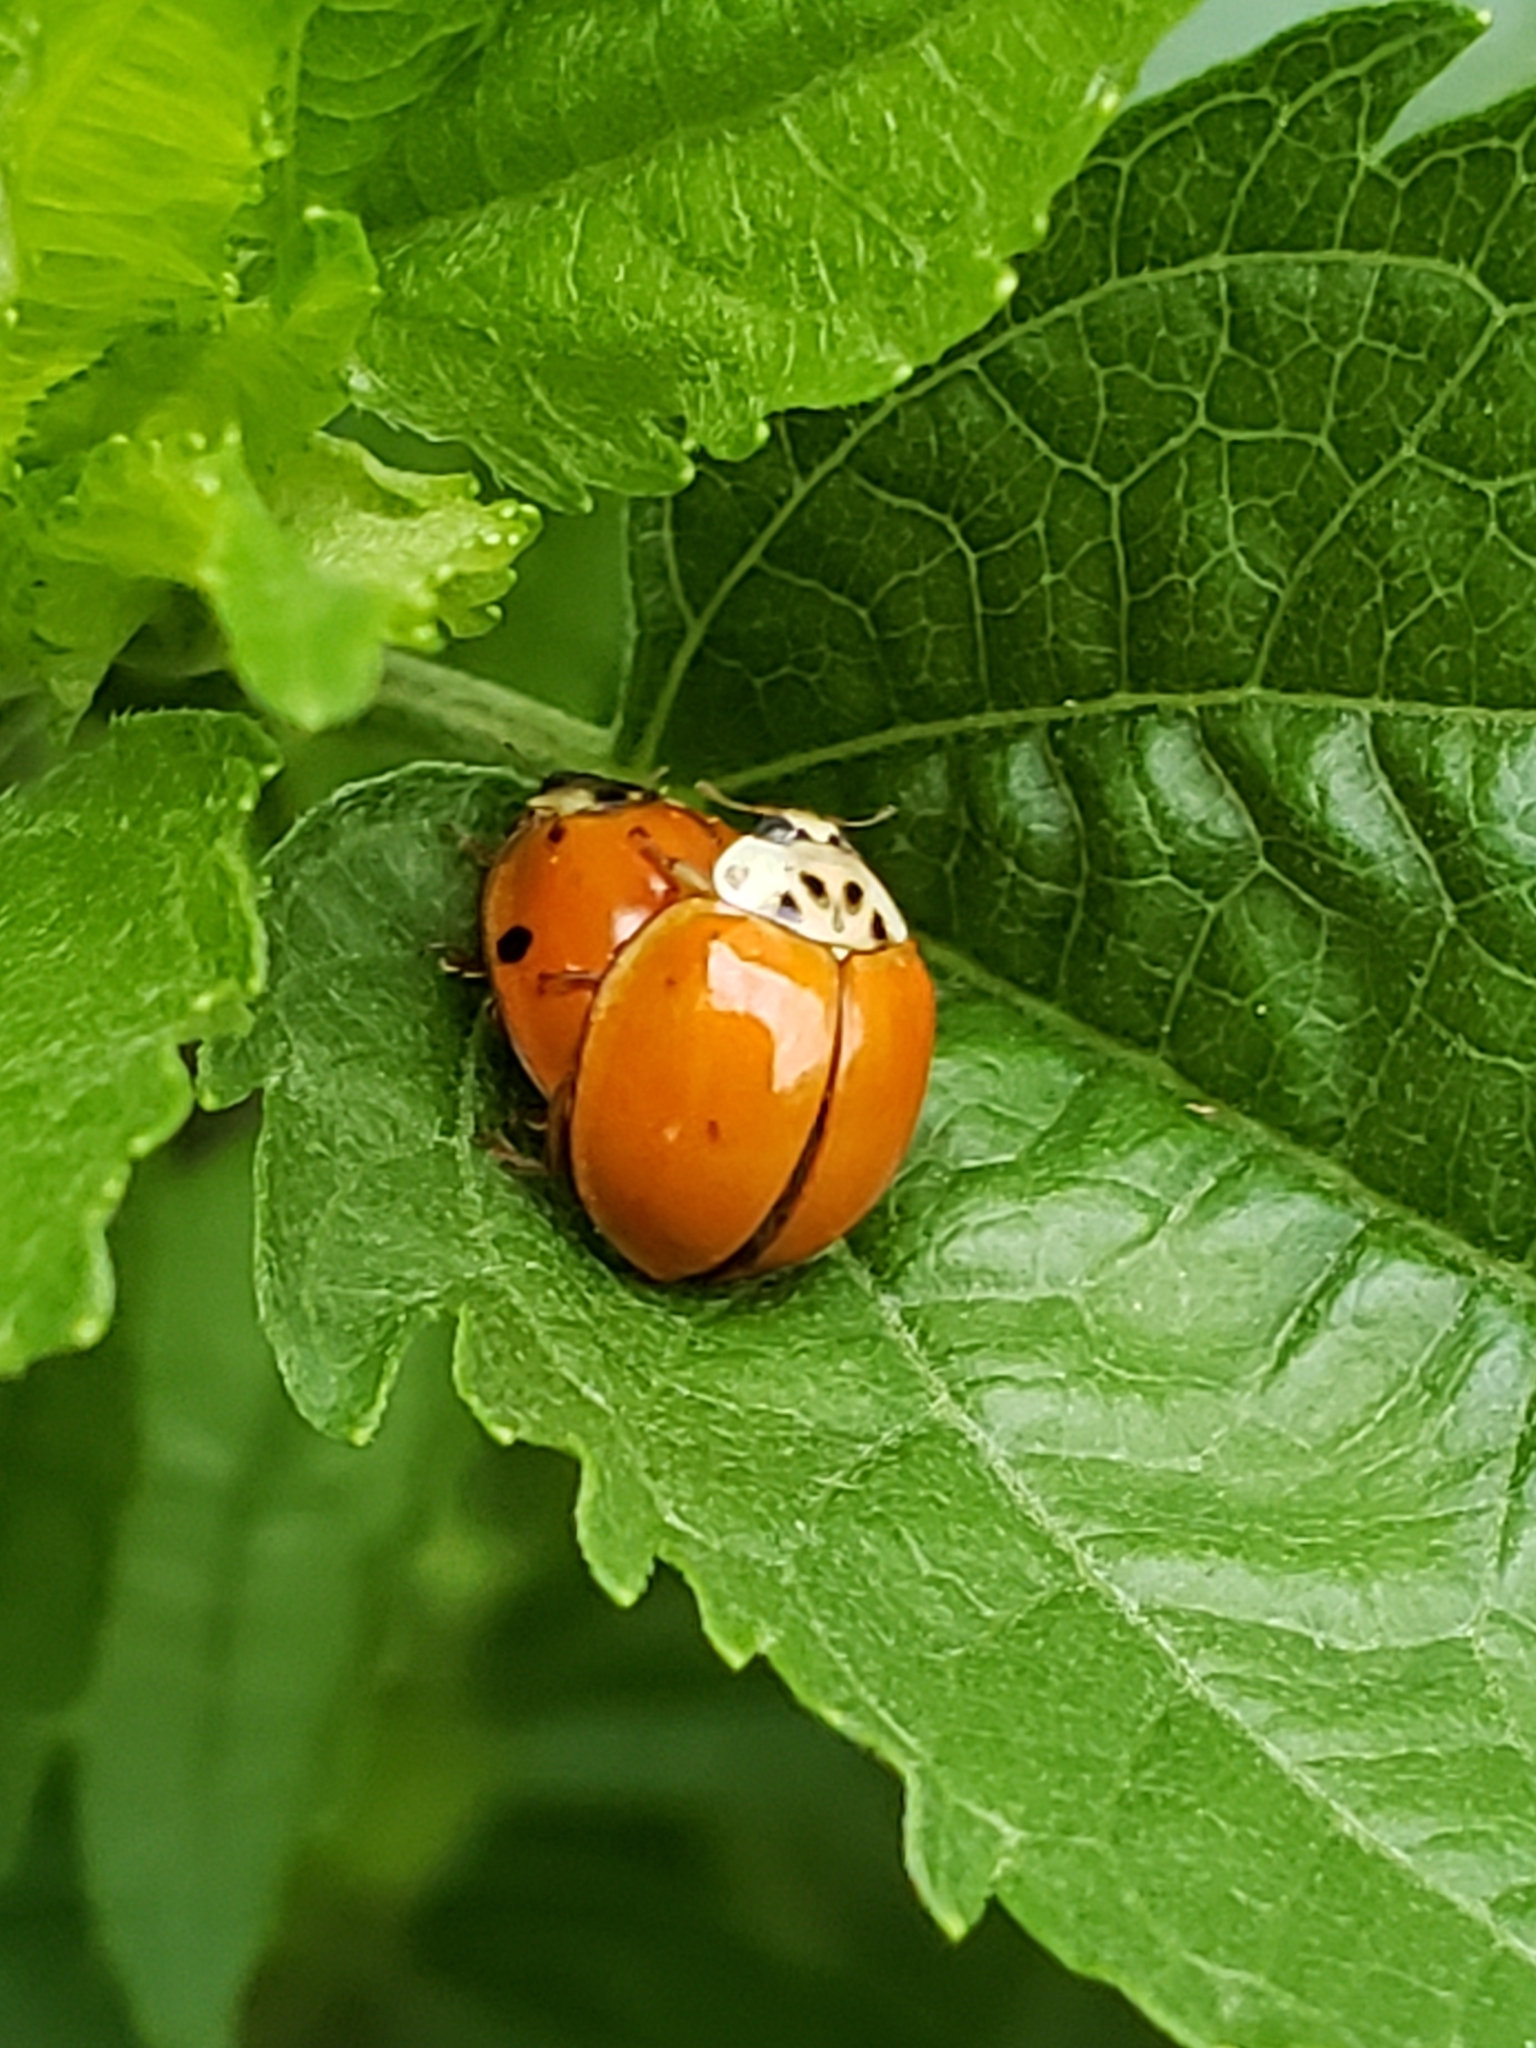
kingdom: Animalia
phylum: Arthropoda
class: Insecta
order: Coleoptera
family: Coccinellidae
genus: Harmonia
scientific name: Harmonia axyridis
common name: Harlequin ladybird
